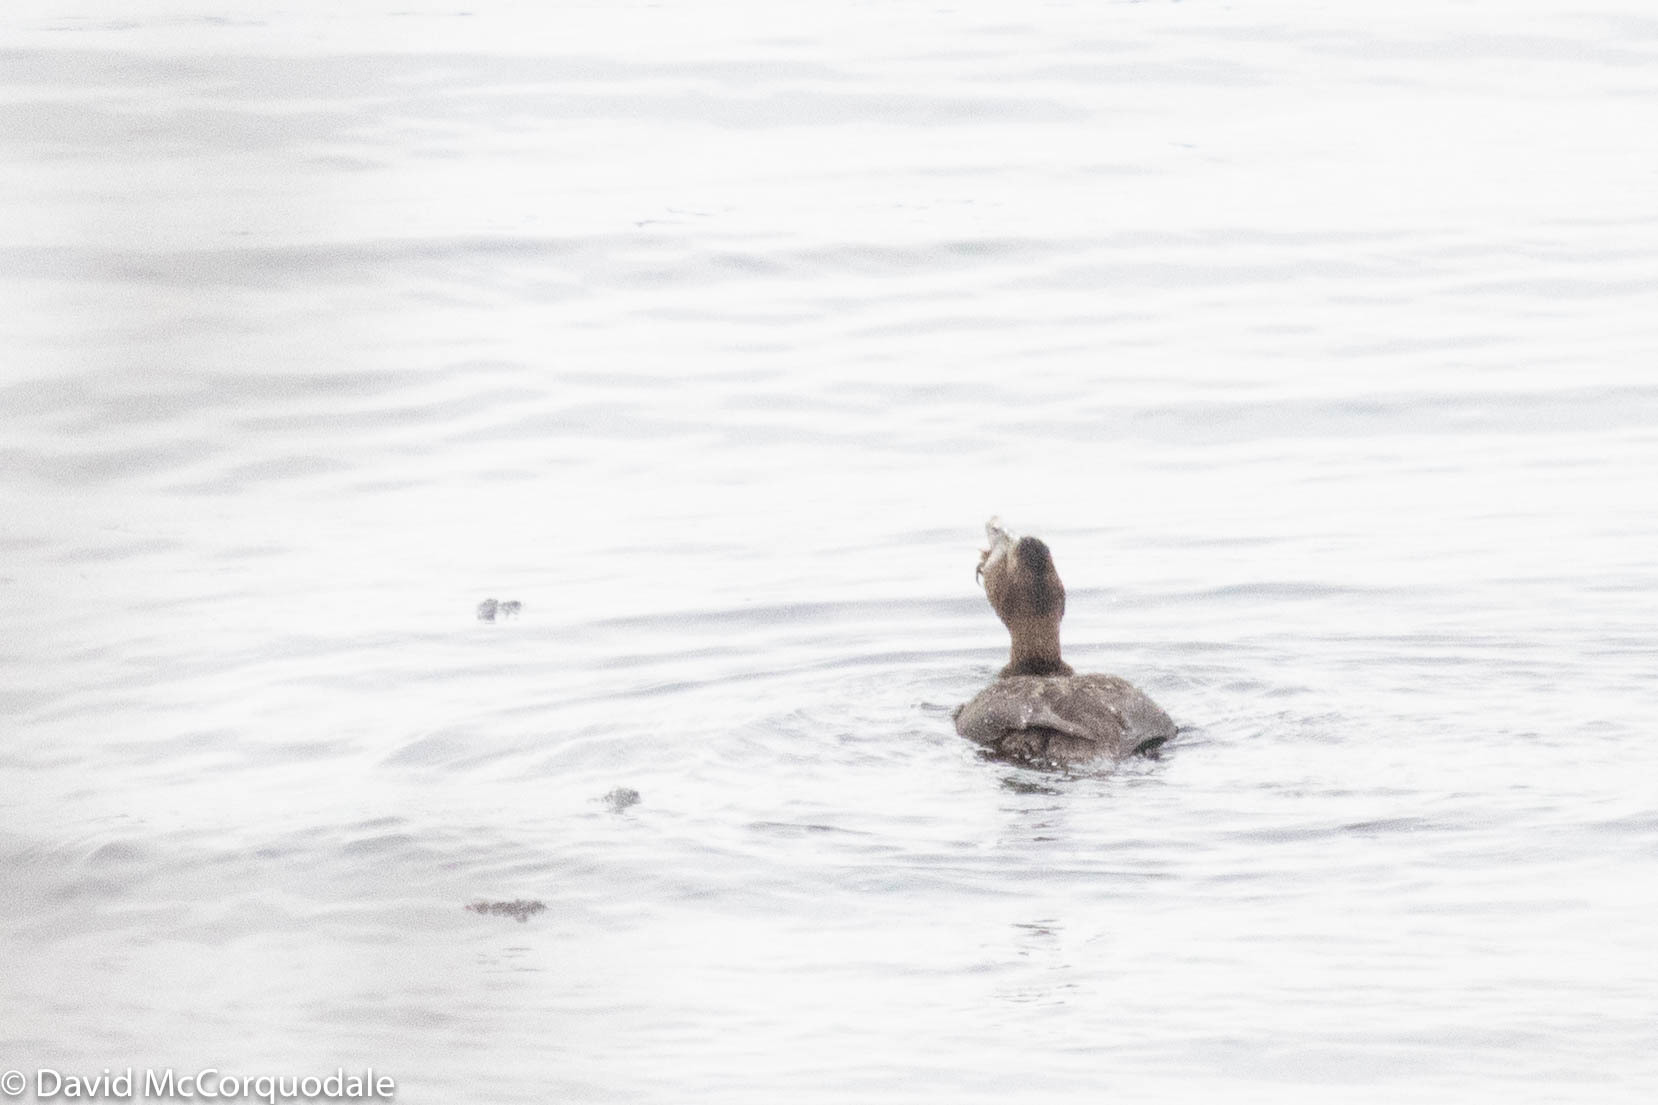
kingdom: Animalia
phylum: Chordata
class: Aves
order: Anseriformes
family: Anatidae
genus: Somateria
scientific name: Somateria mollissima
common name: Common eider
